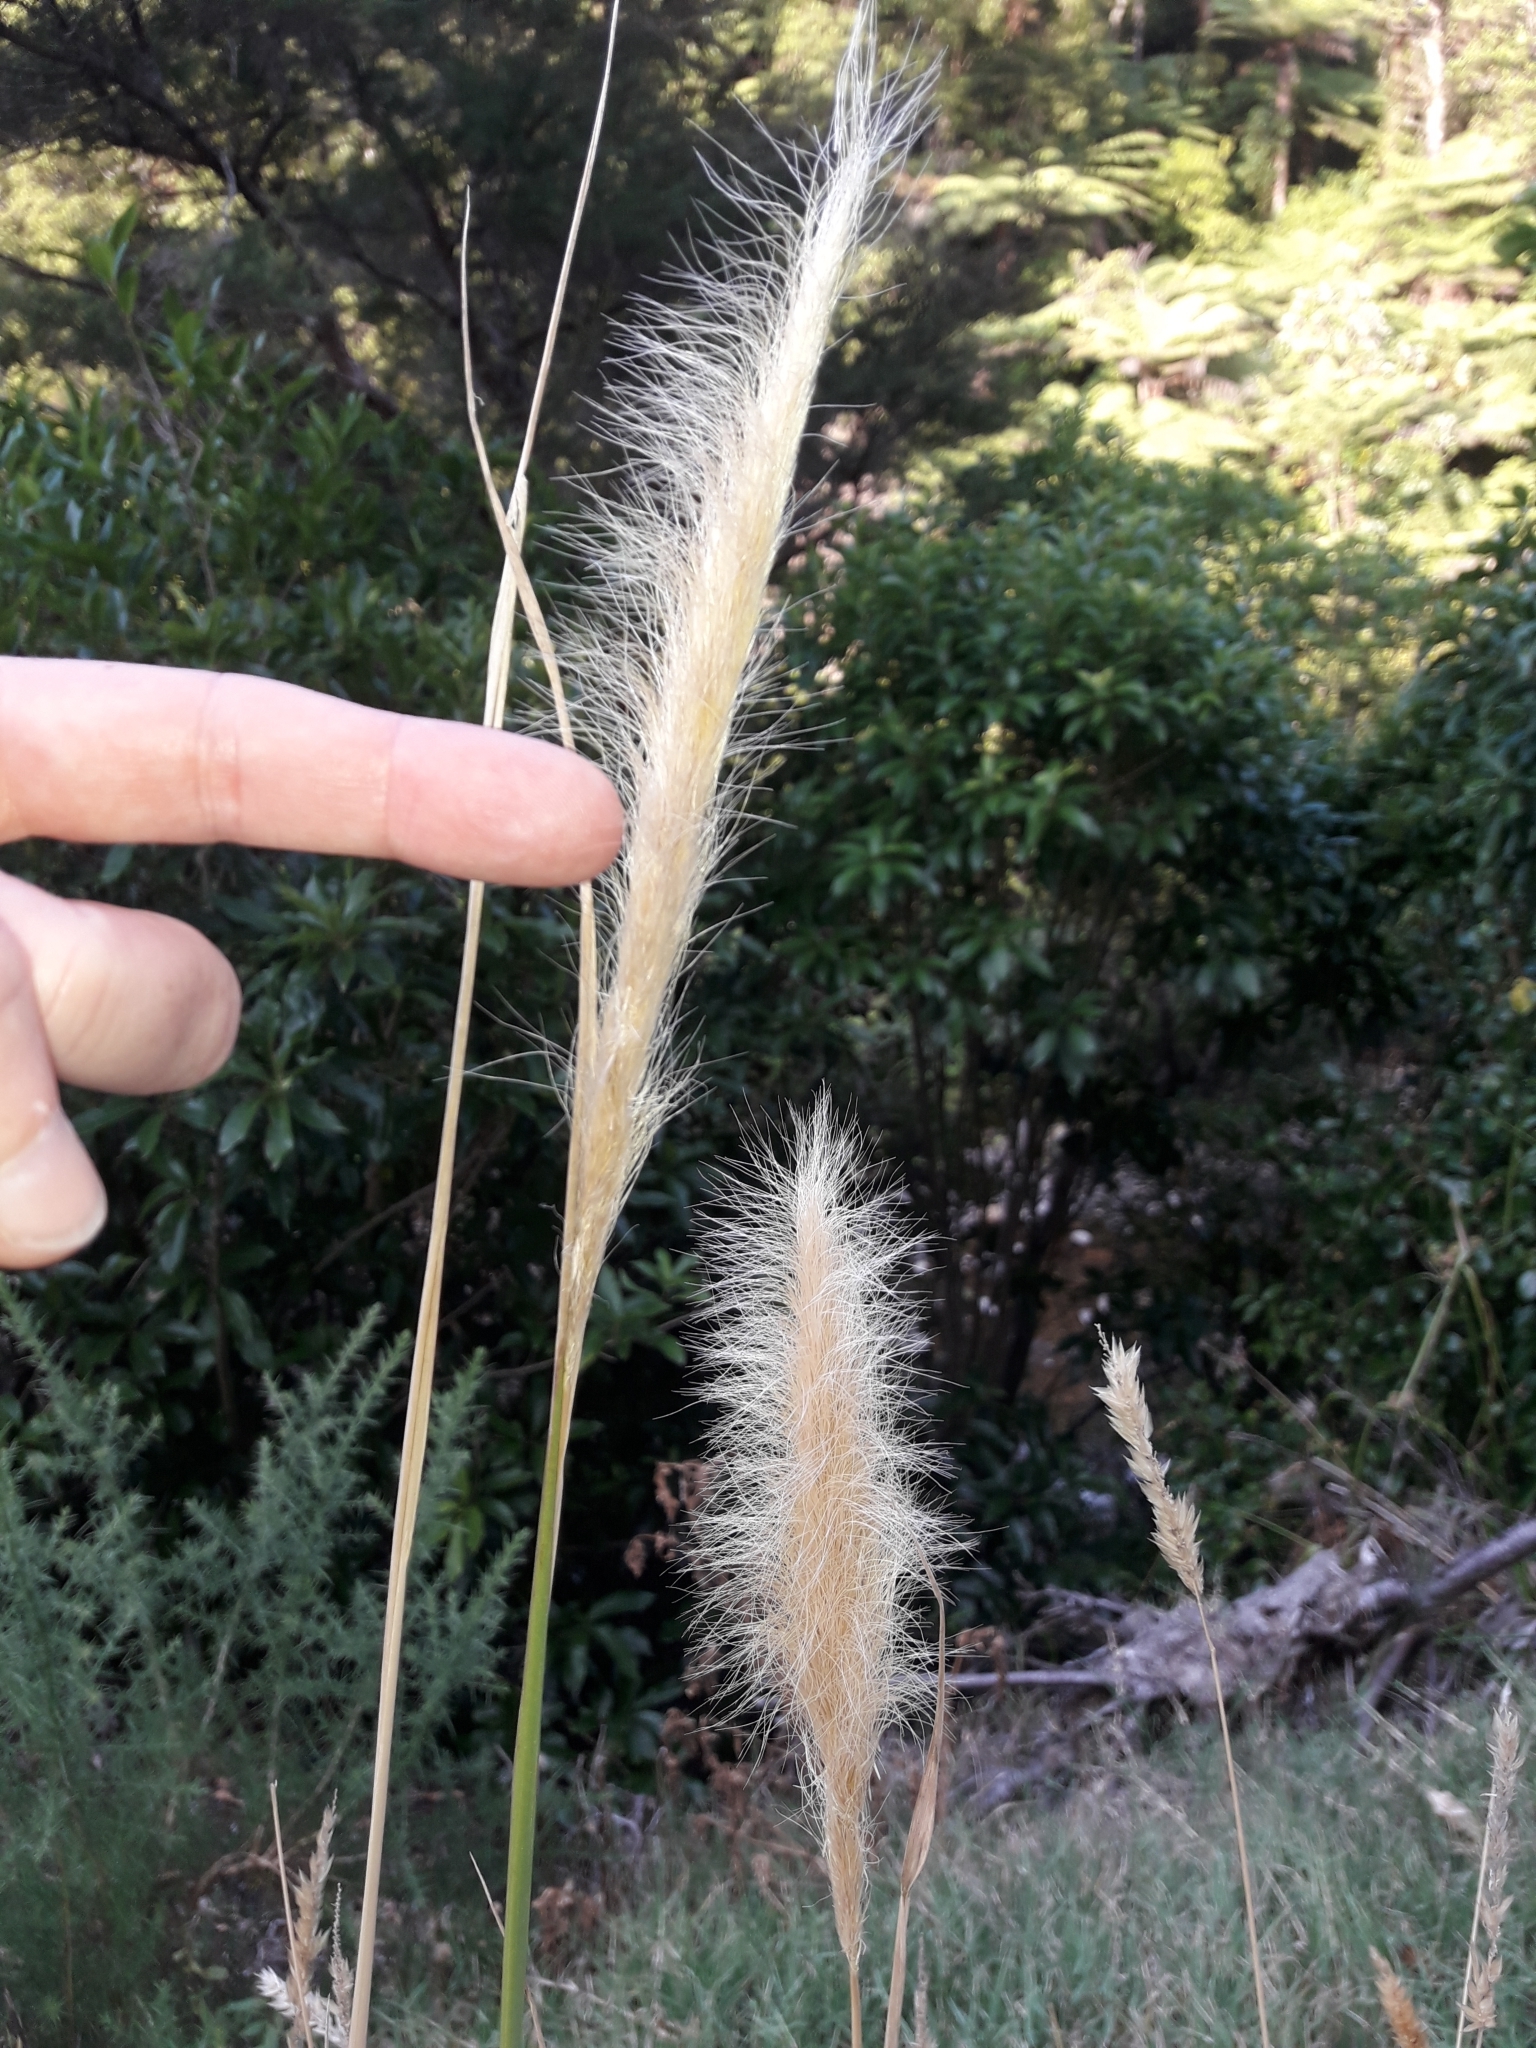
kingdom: Plantae
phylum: Tracheophyta
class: Liliopsida
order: Poales
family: Poaceae
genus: Dichelachne
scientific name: Dichelachne crinita
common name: Clovenfoot plumegrass
